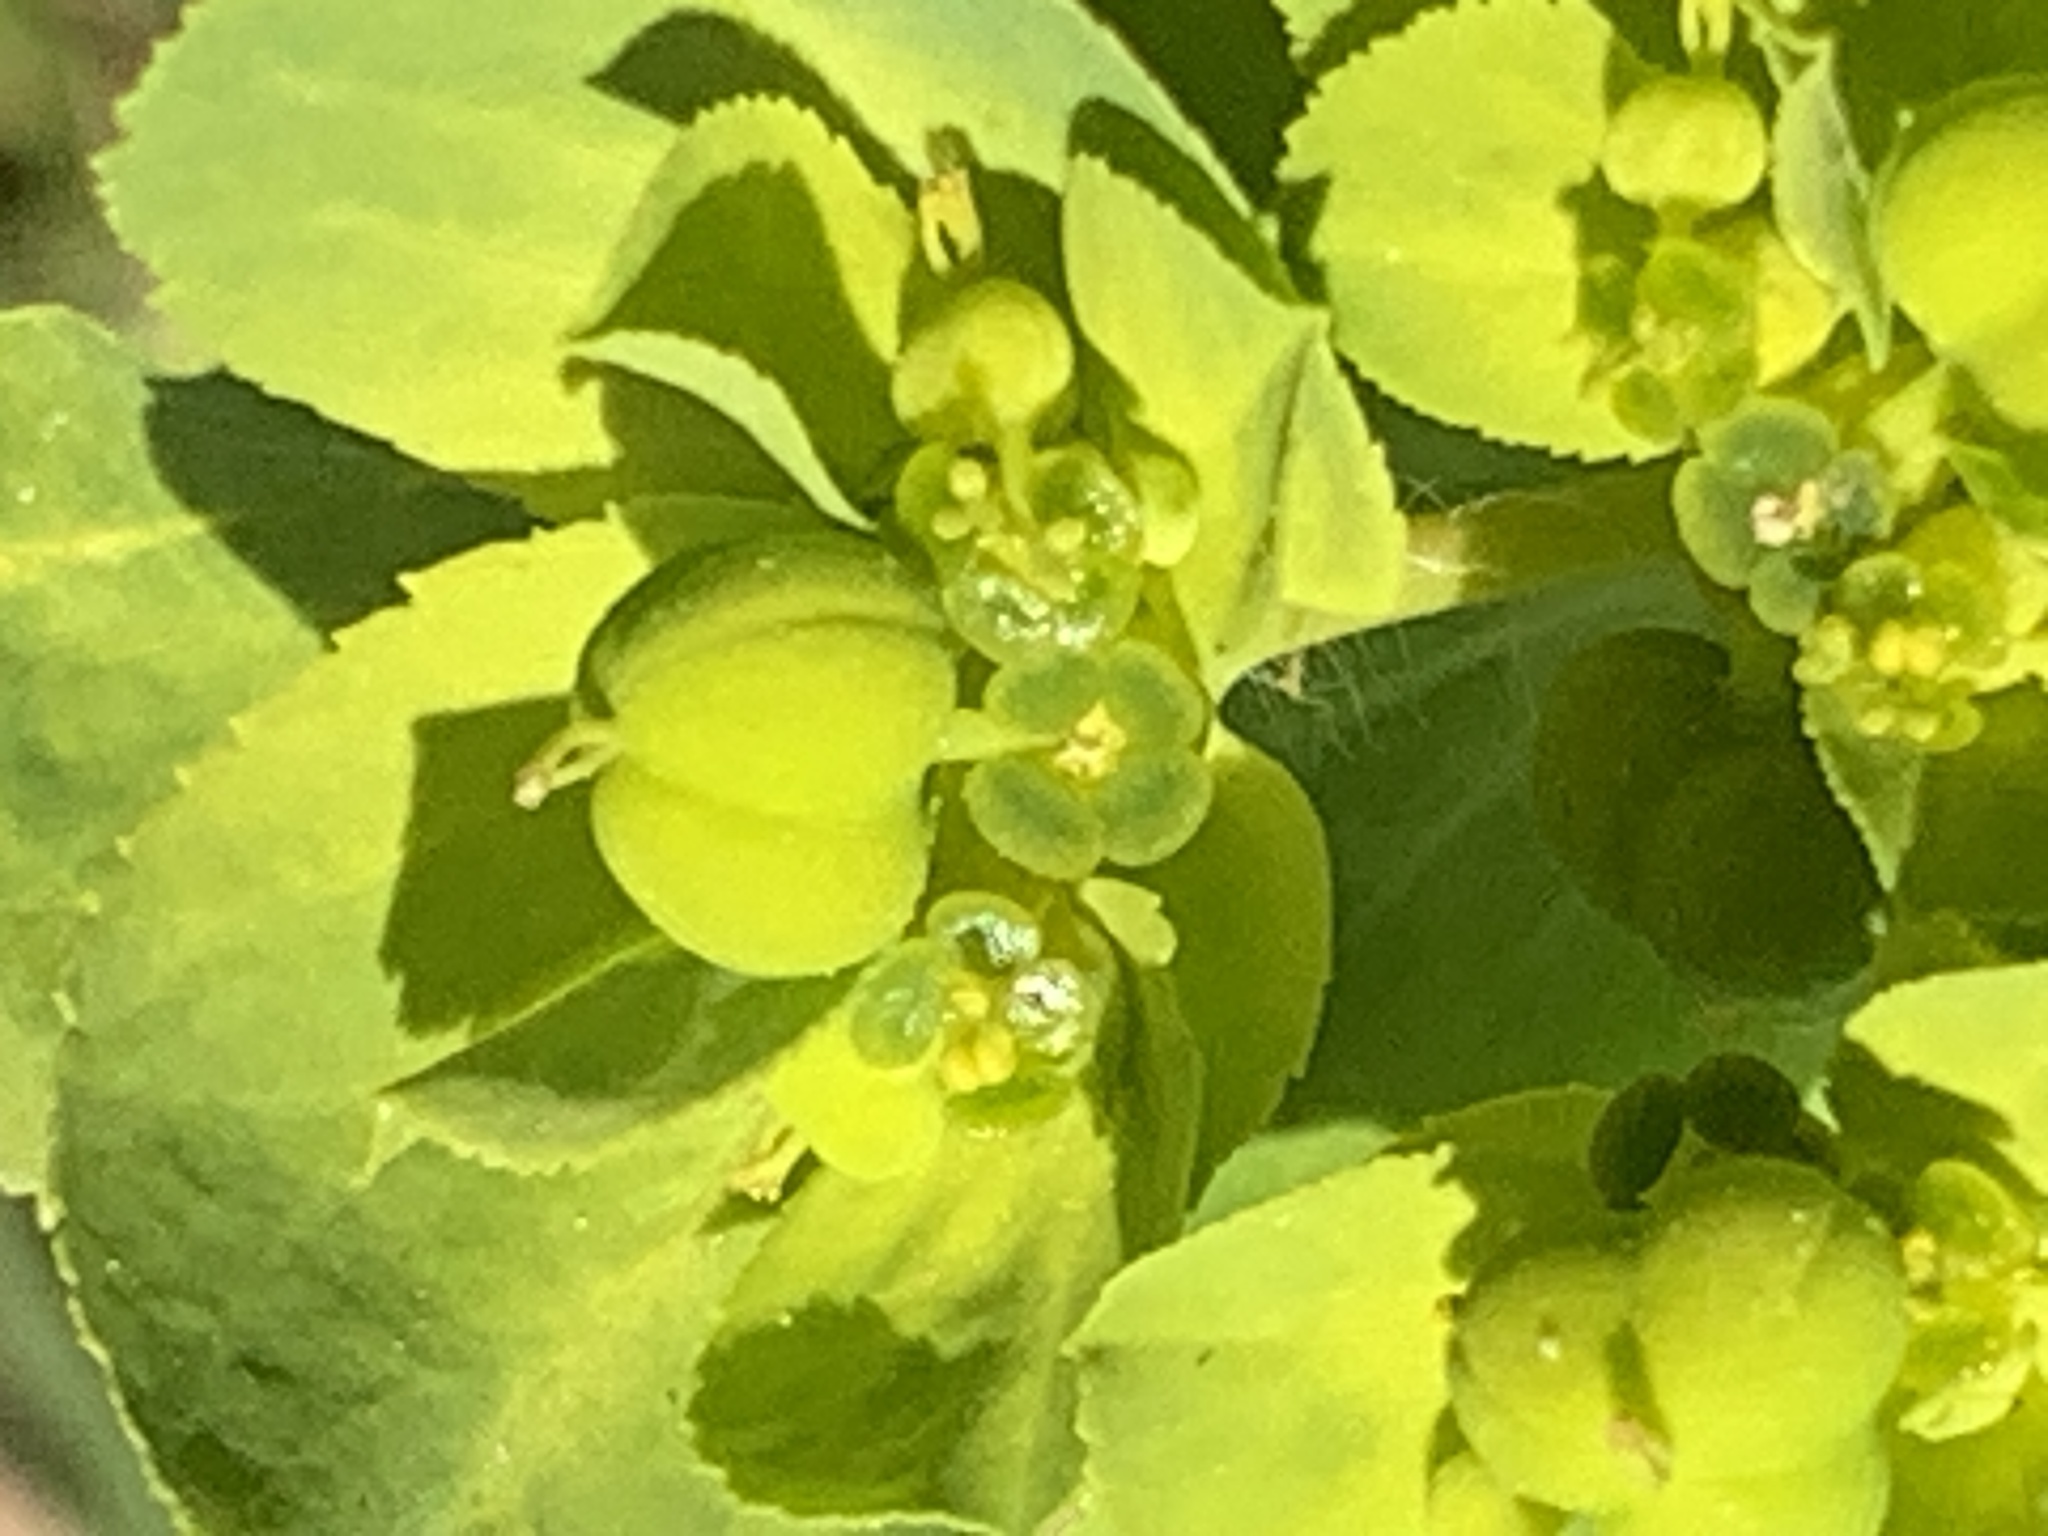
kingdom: Plantae
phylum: Tracheophyta
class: Magnoliopsida
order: Malpighiales
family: Euphorbiaceae
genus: Euphorbia
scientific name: Euphorbia helioscopia
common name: Sun spurge
